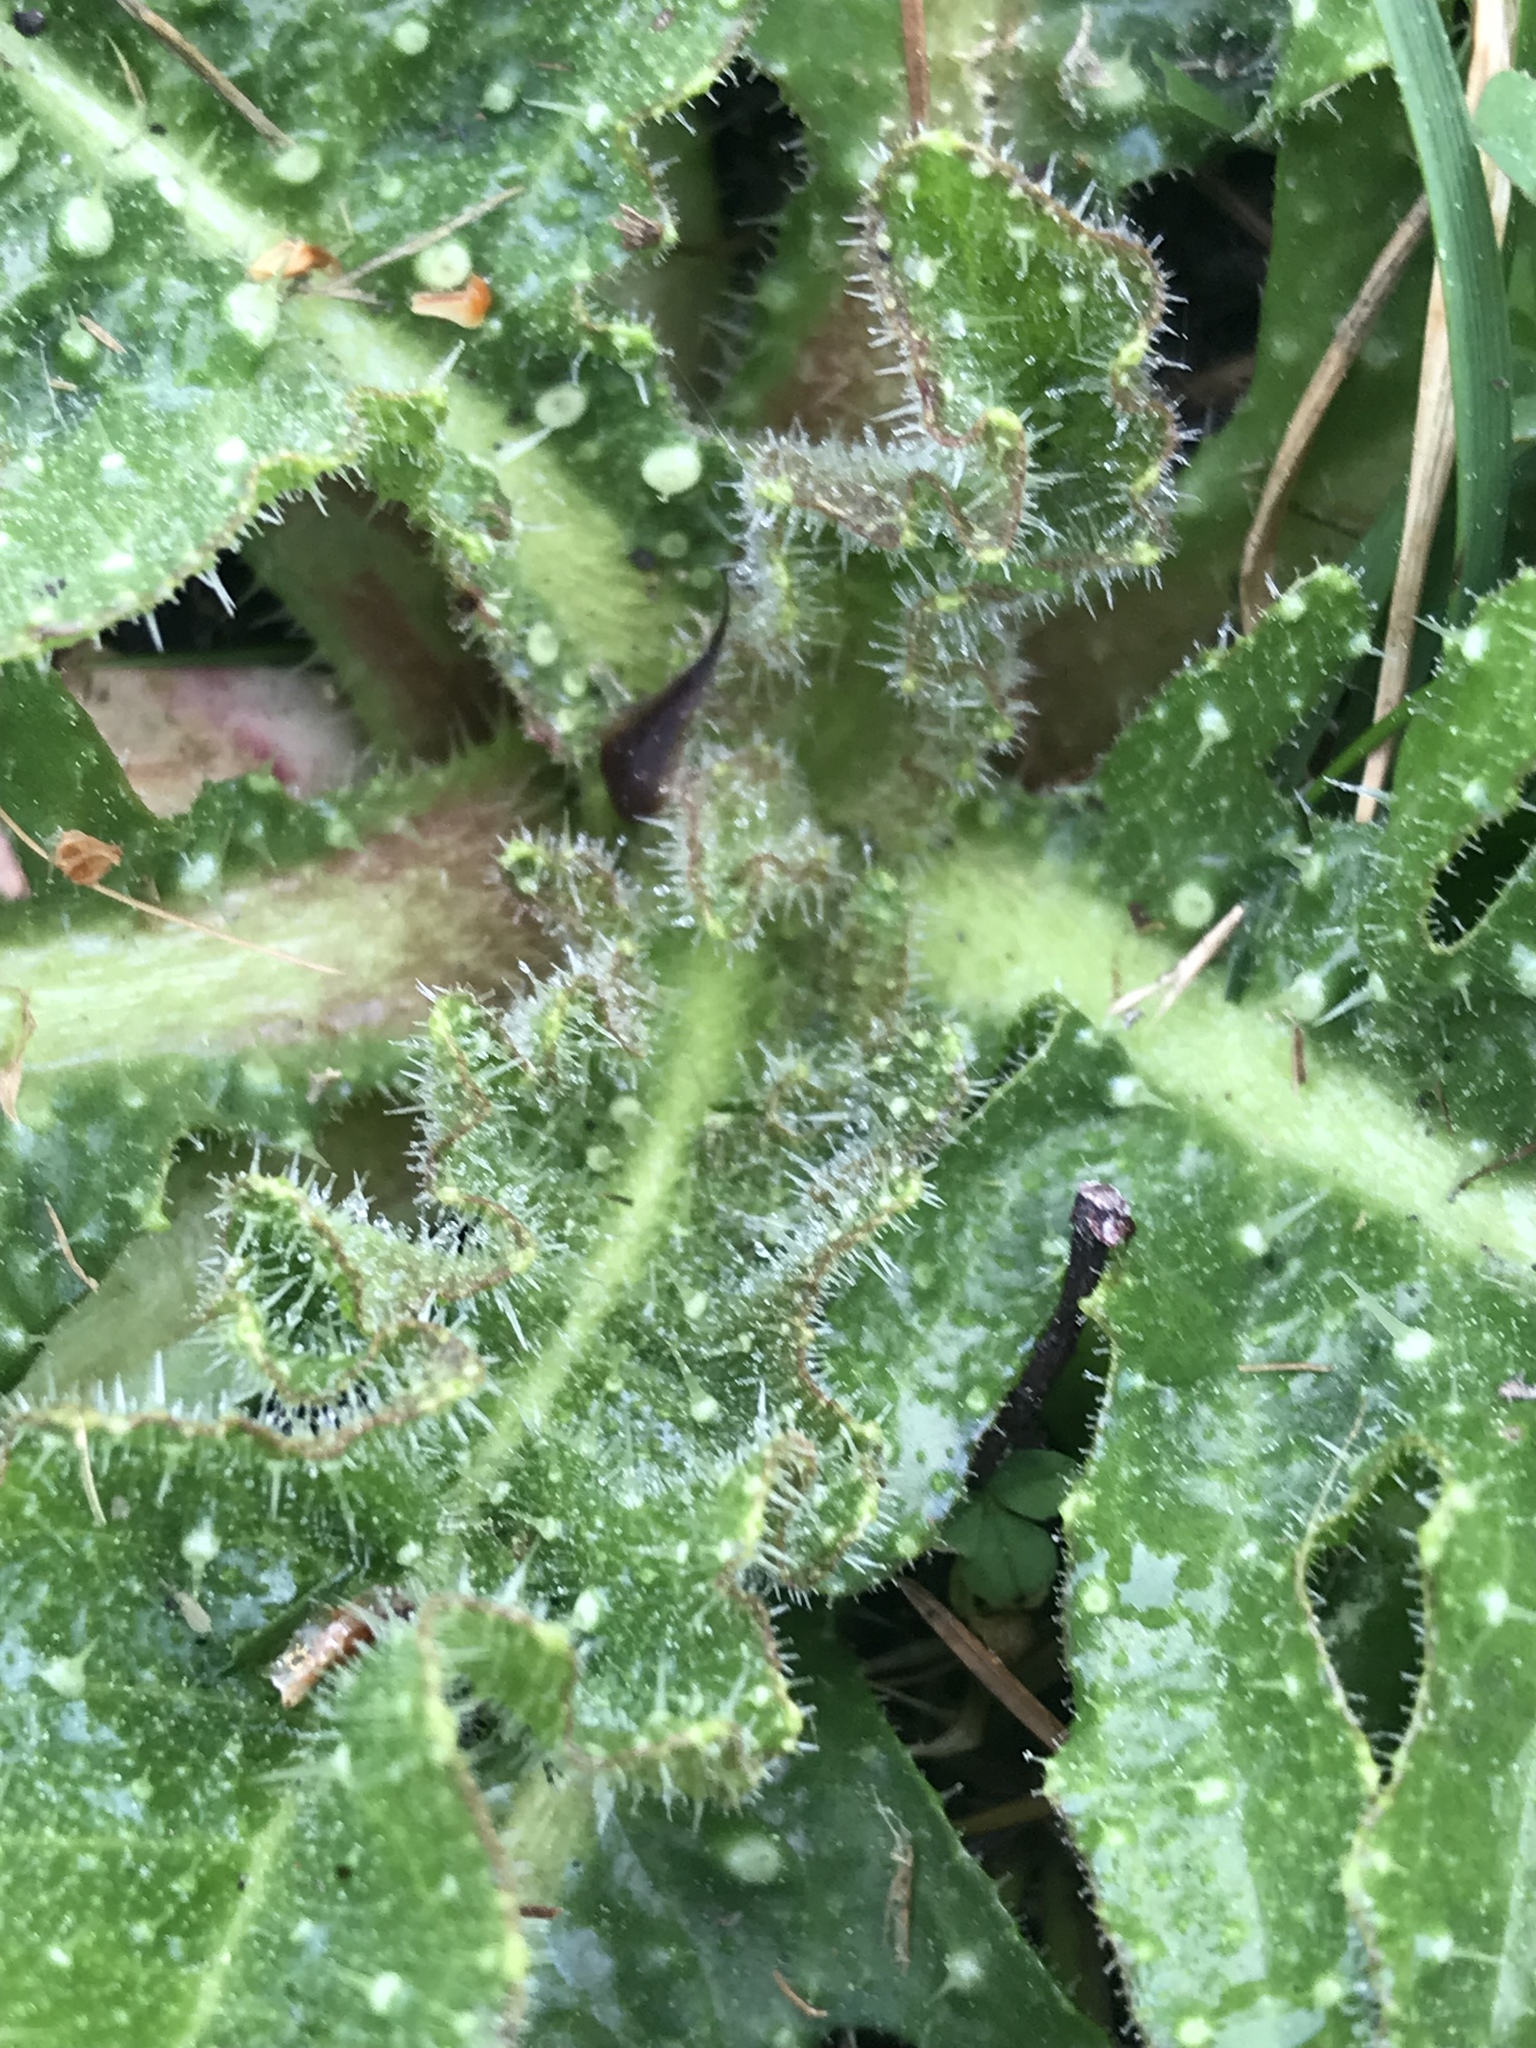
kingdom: Plantae
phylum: Tracheophyta
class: Magnoliopsida
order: Asterales
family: Asteraceae
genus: Helminthotheca
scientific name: Helminthotheca echioides
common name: Ox-tongue
